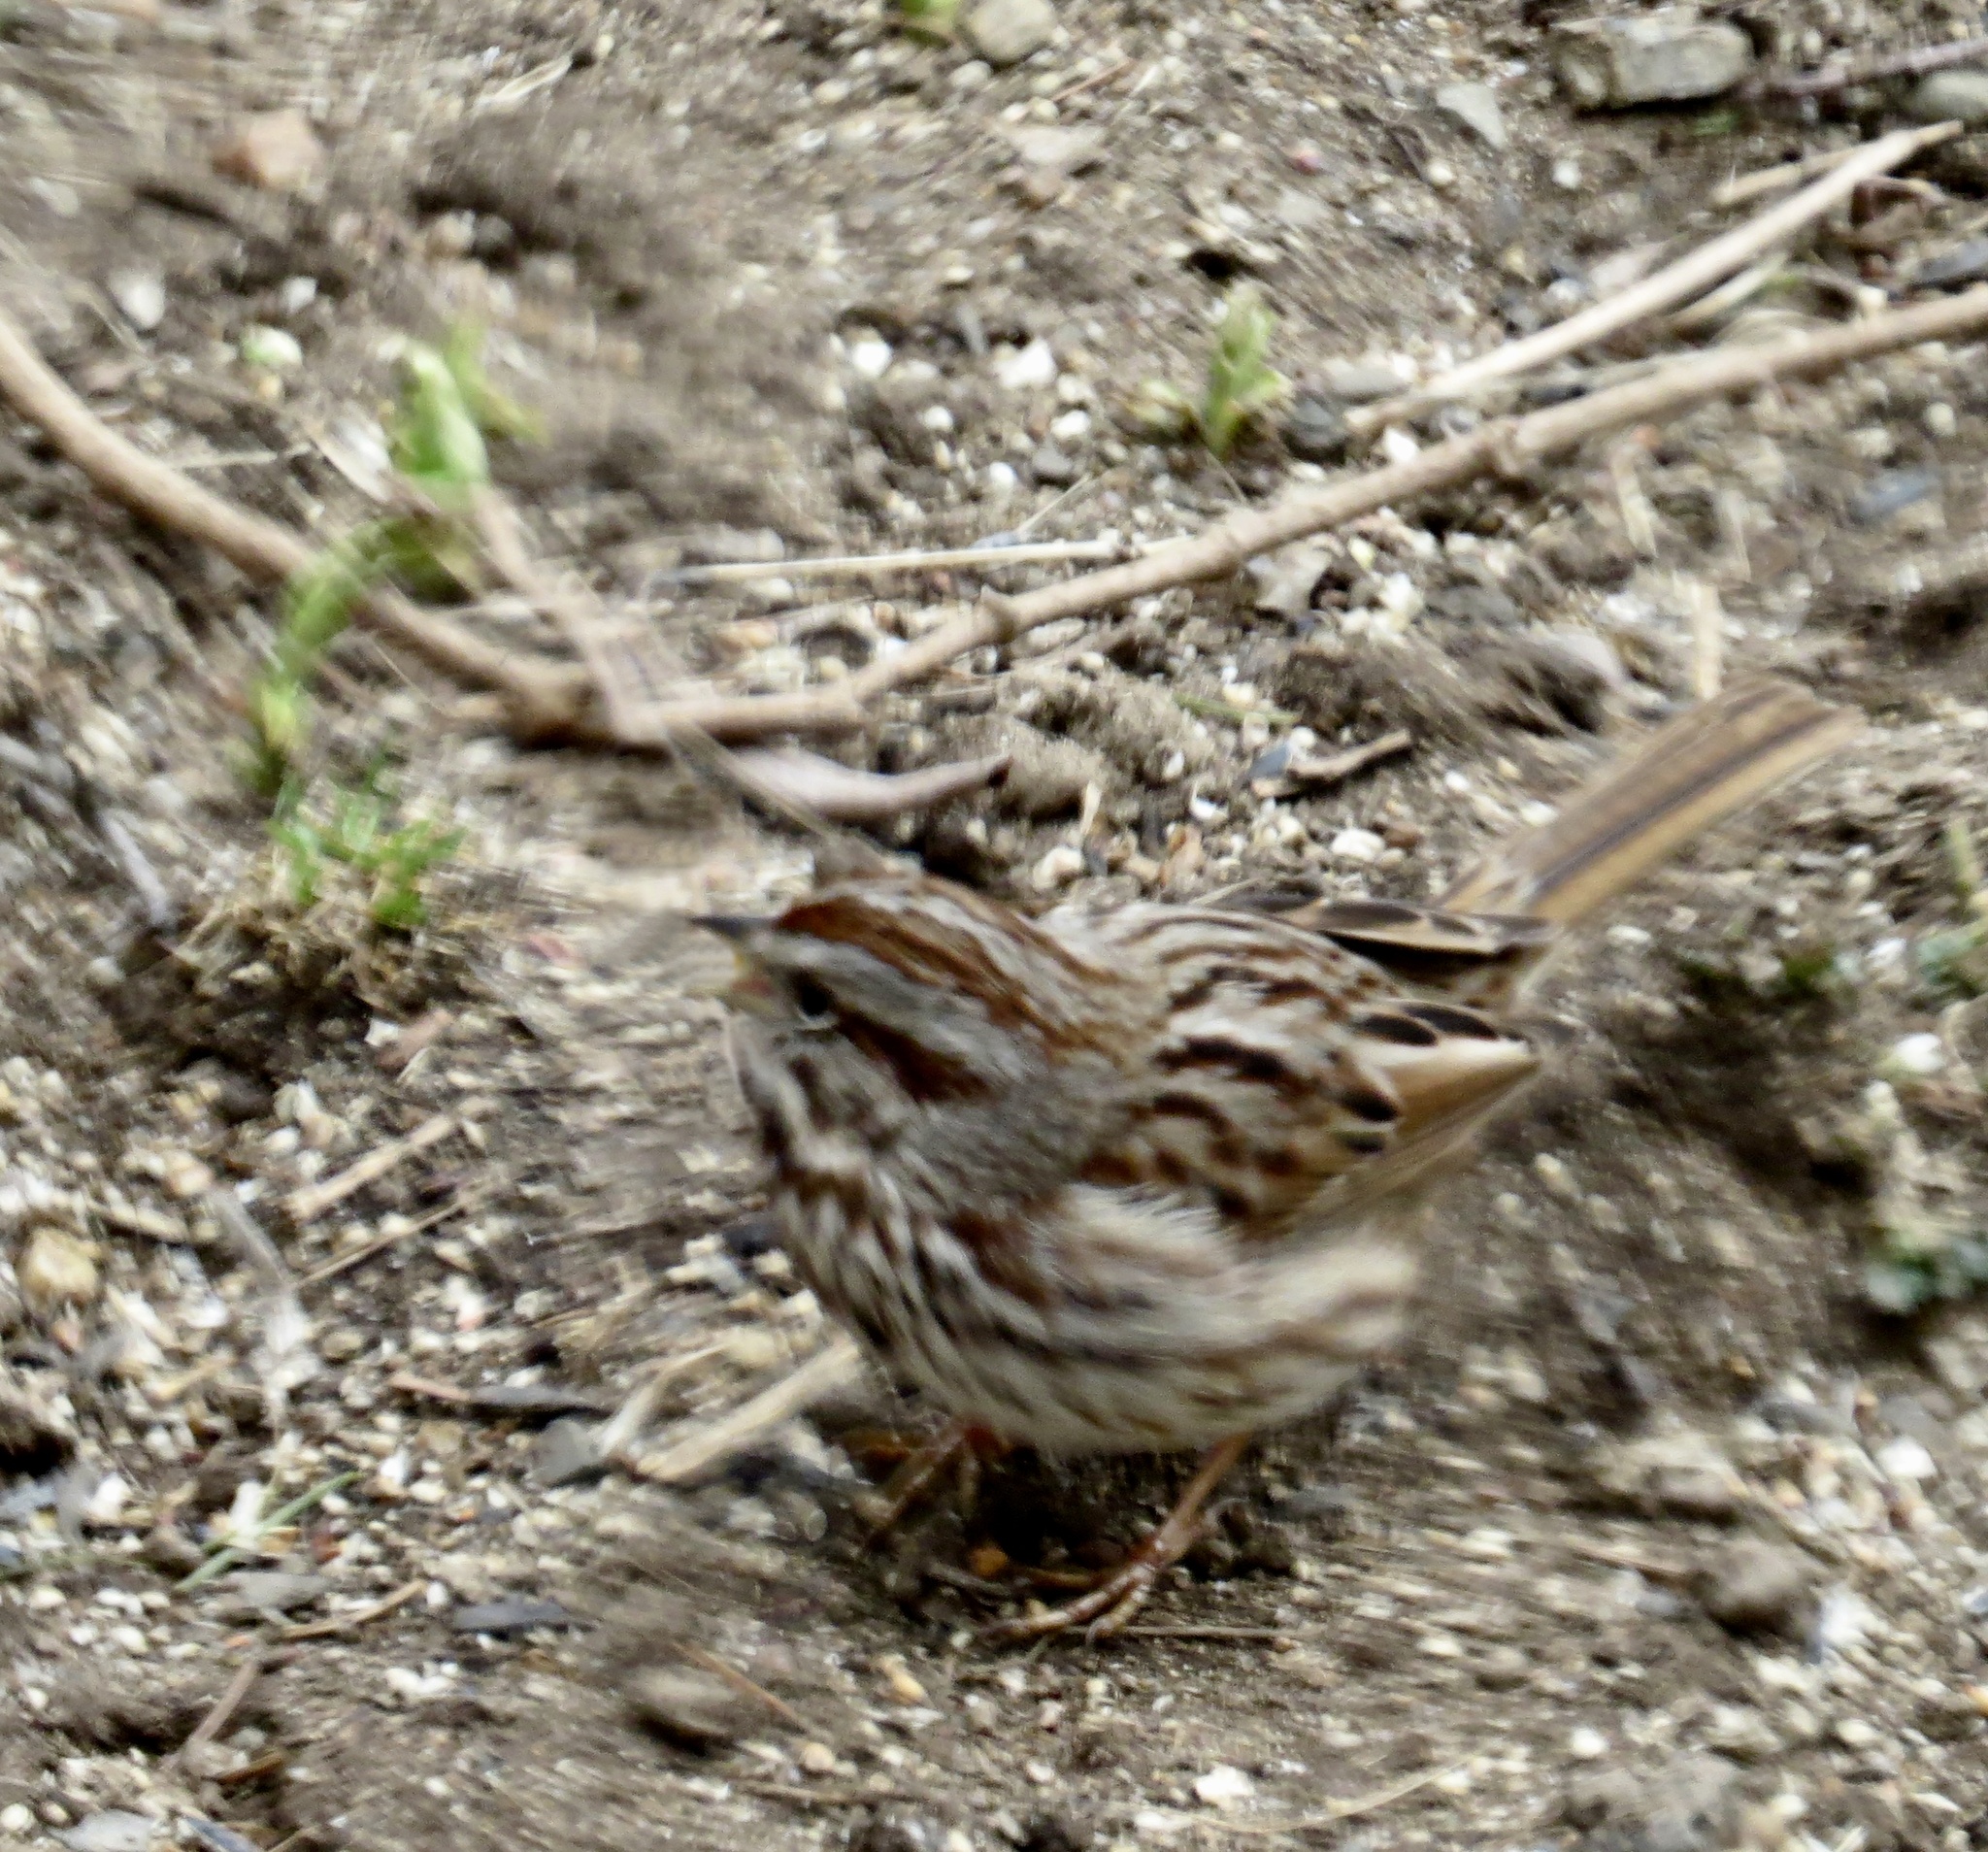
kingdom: Animalia
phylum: Chordata
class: Aves
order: Passeriformes
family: Passerellidae
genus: Melospiza
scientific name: Melospiza melodia
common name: Song sparrow
